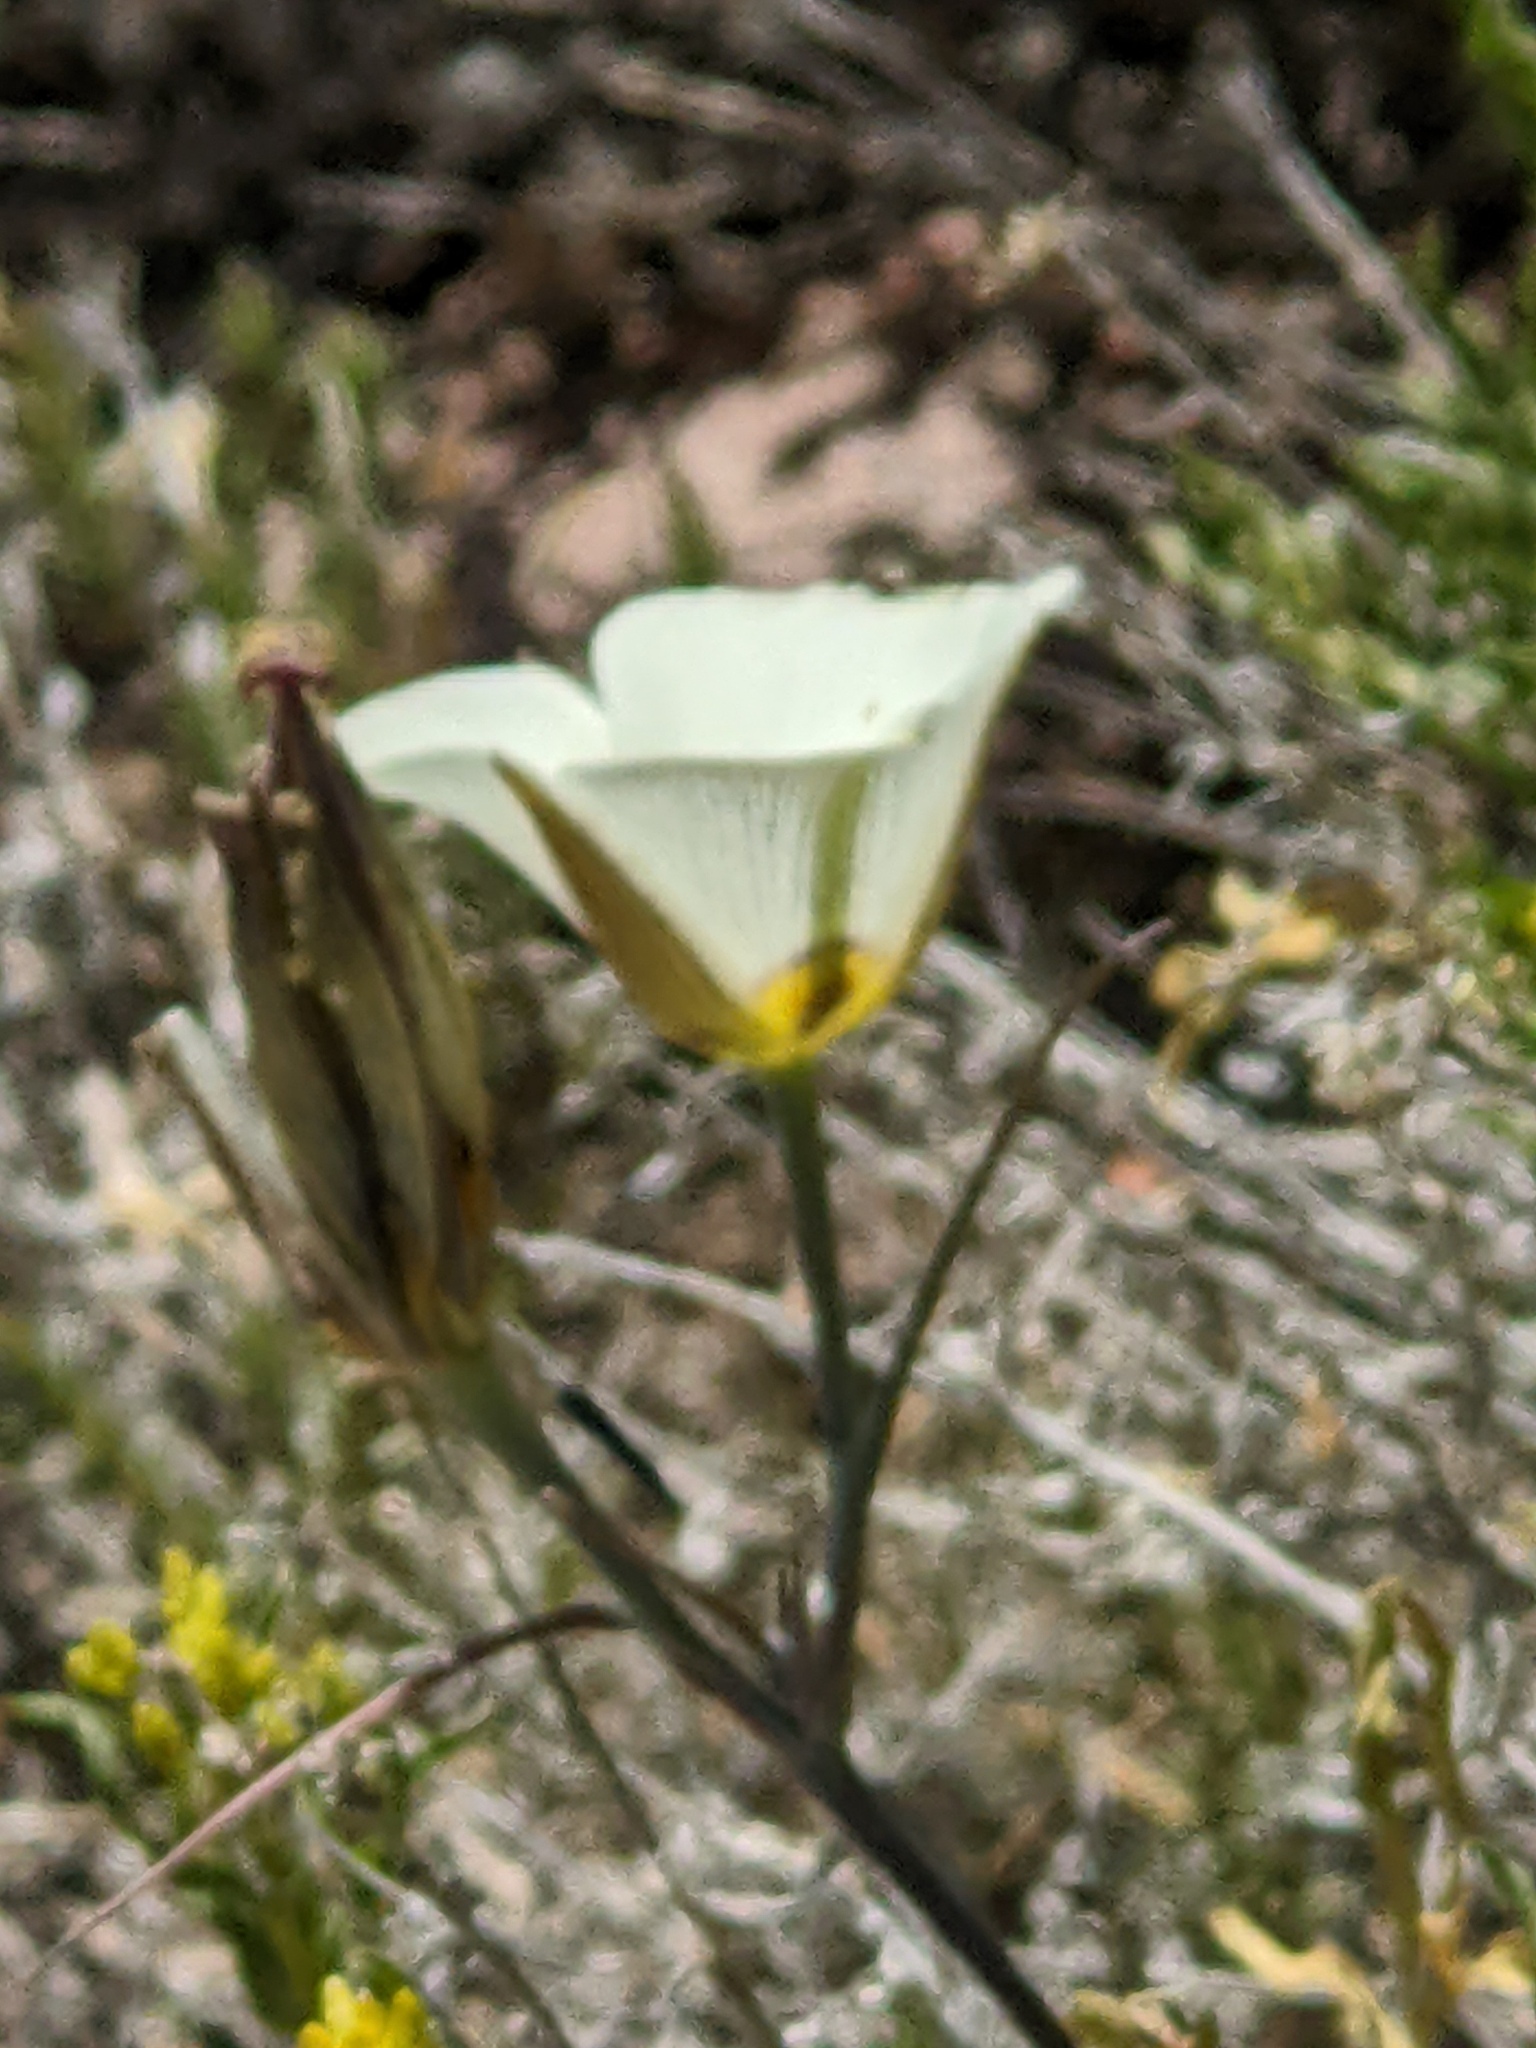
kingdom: Plantae
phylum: Tracheophyta
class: Liliopsida
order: Liliales
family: Liliaceae
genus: Calochortus
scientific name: Calochortus bruneaunis
